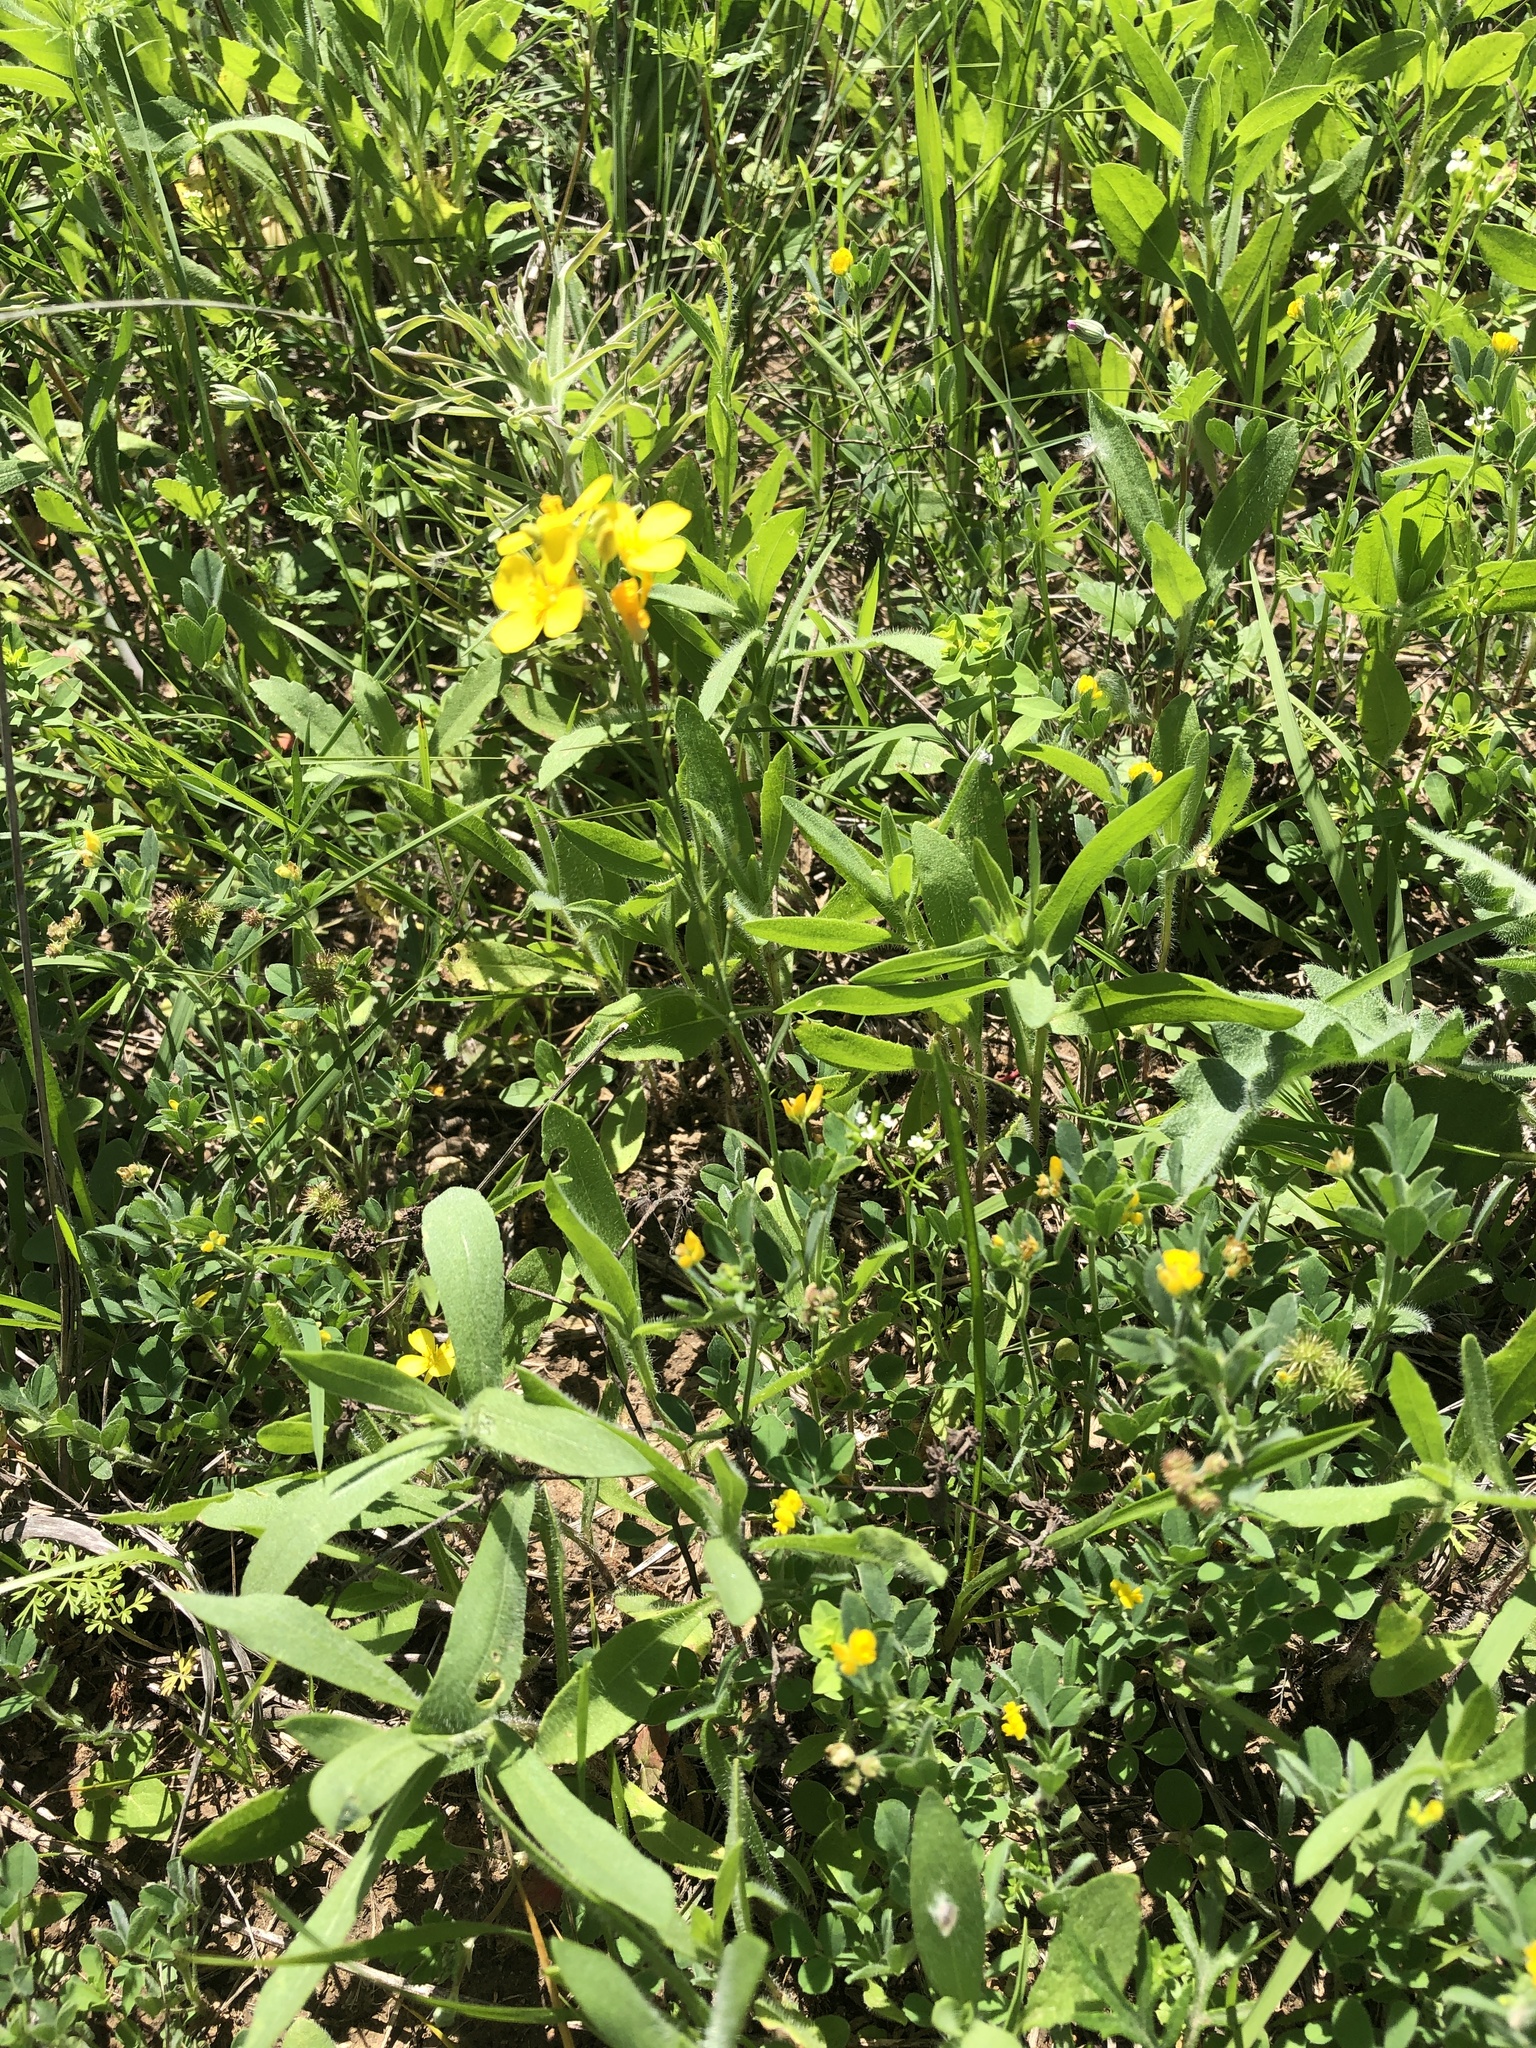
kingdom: Plantae
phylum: Tracheophyta
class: Magnoliopsida
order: Brassicales
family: Brassicaceae
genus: Physaria
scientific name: Physaria gracilis
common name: Spreading bladderpod
